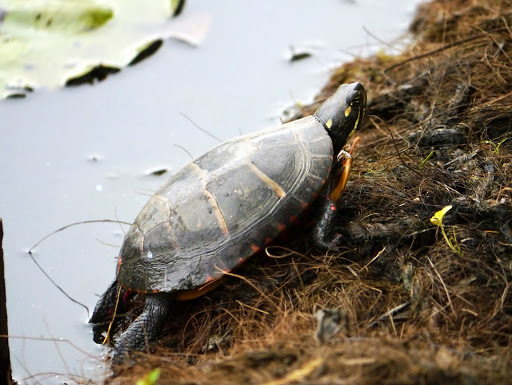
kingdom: Animalia
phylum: Chordata
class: Testudines
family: Emydidae
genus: Chrysemys
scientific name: Chrysemys picta
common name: Painted turtle
